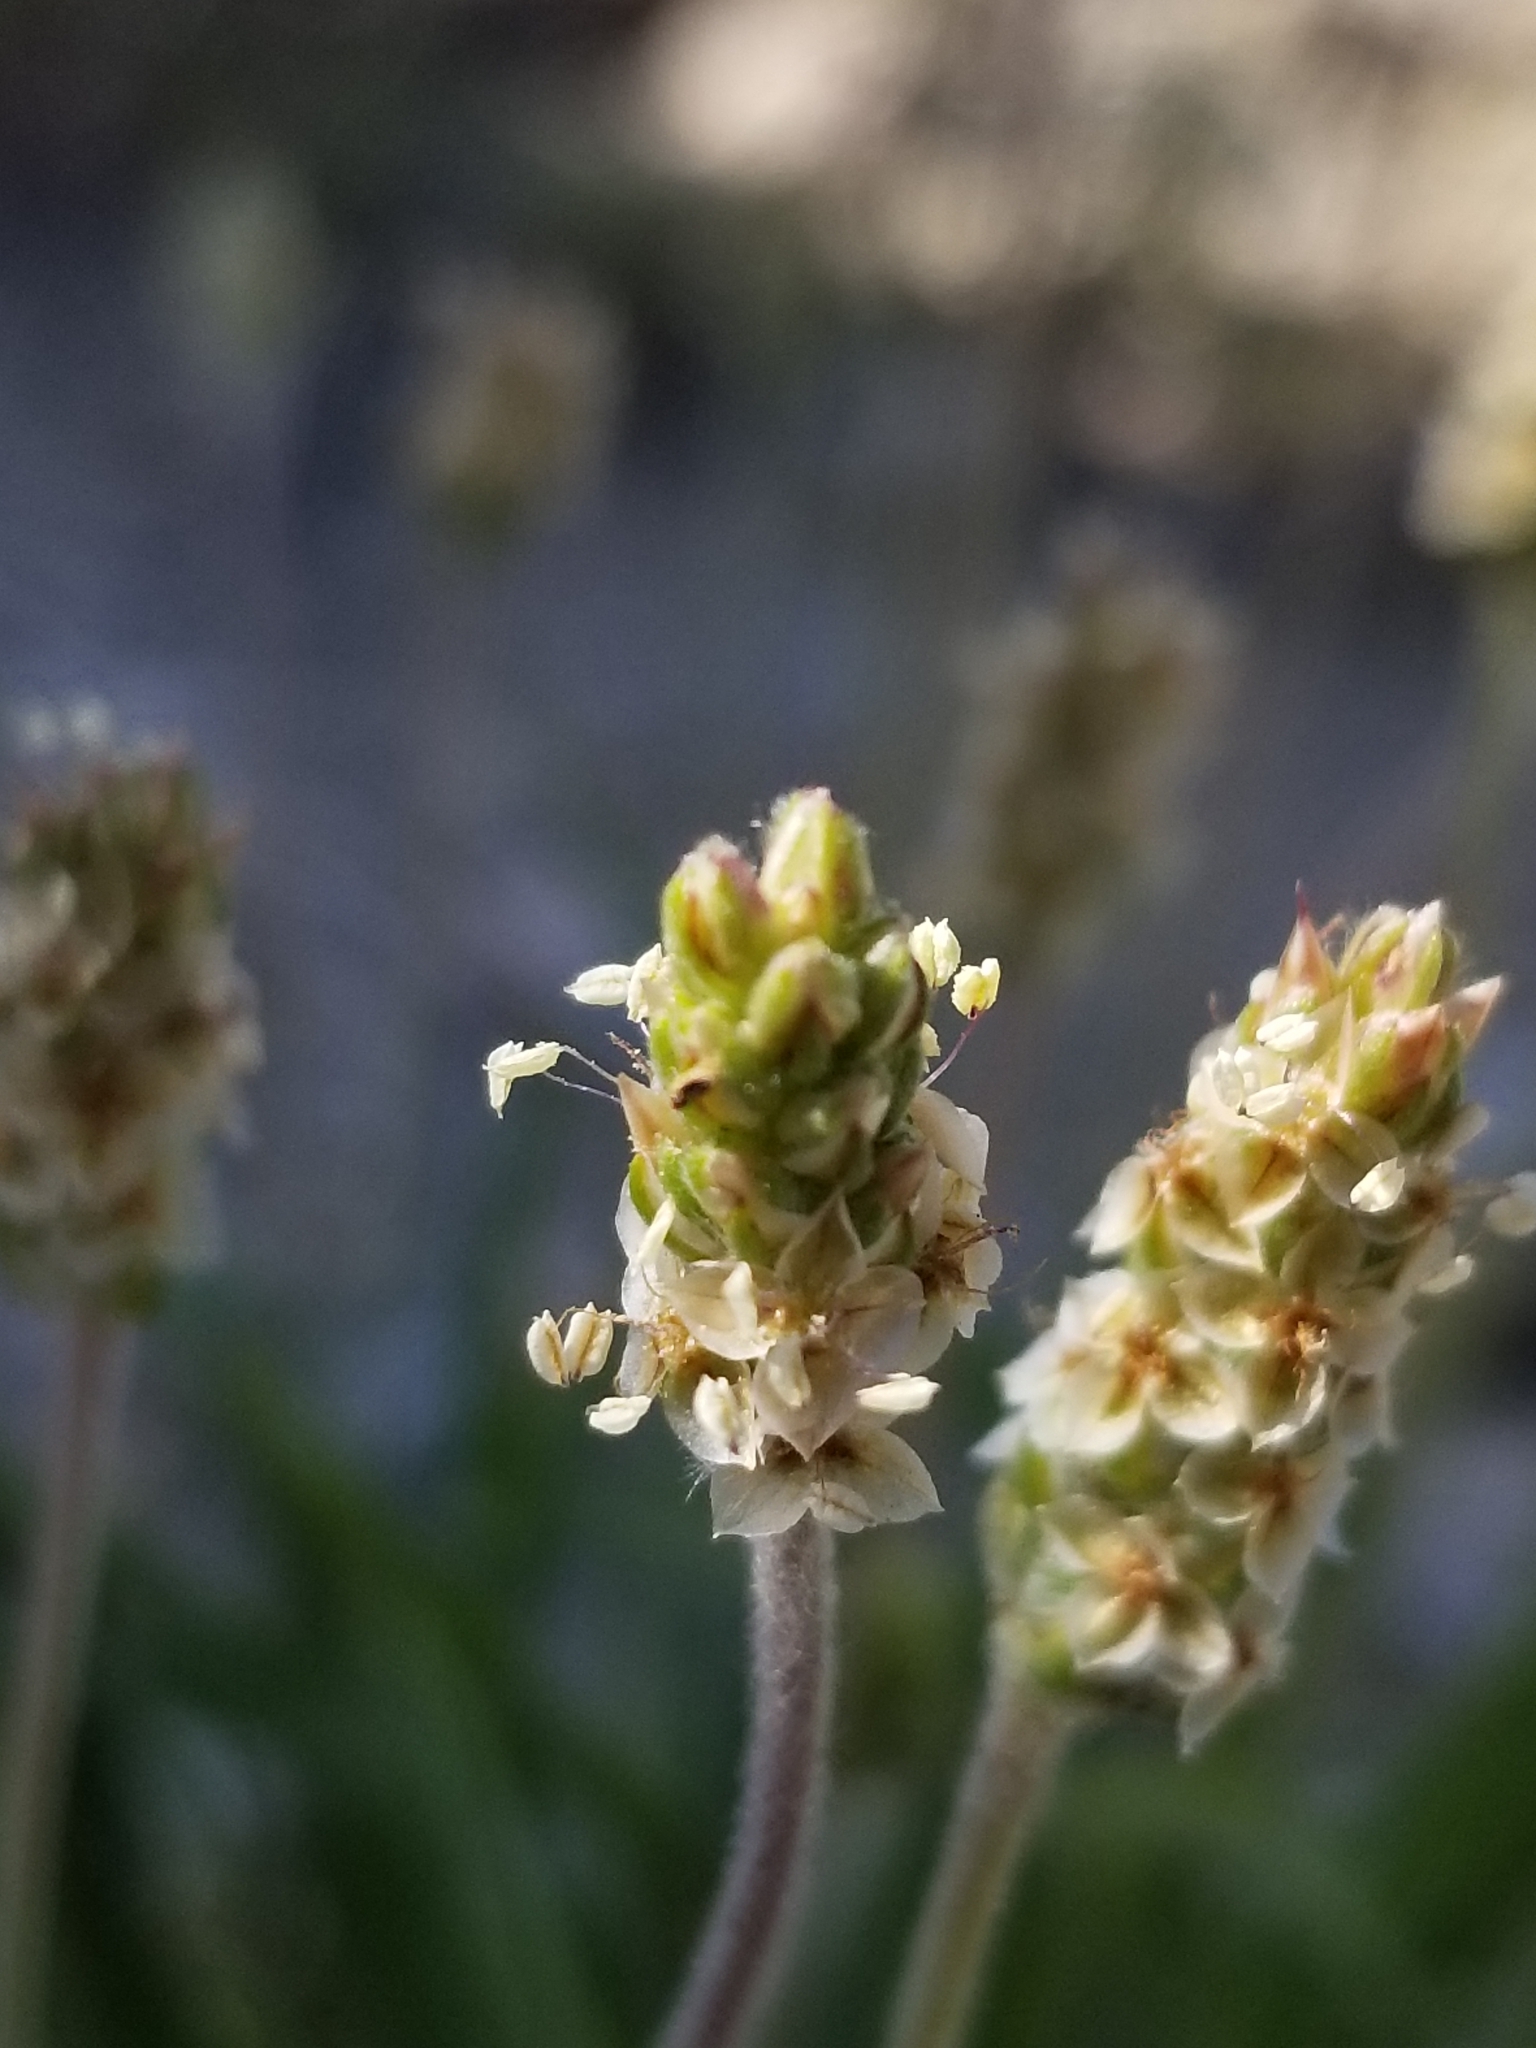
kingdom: Plantae
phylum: Tracheophyta
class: Magnoliopsida
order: Lamiales
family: Plantaginaceae
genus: Plantago
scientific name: Plantago ovata
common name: Blond plantain
